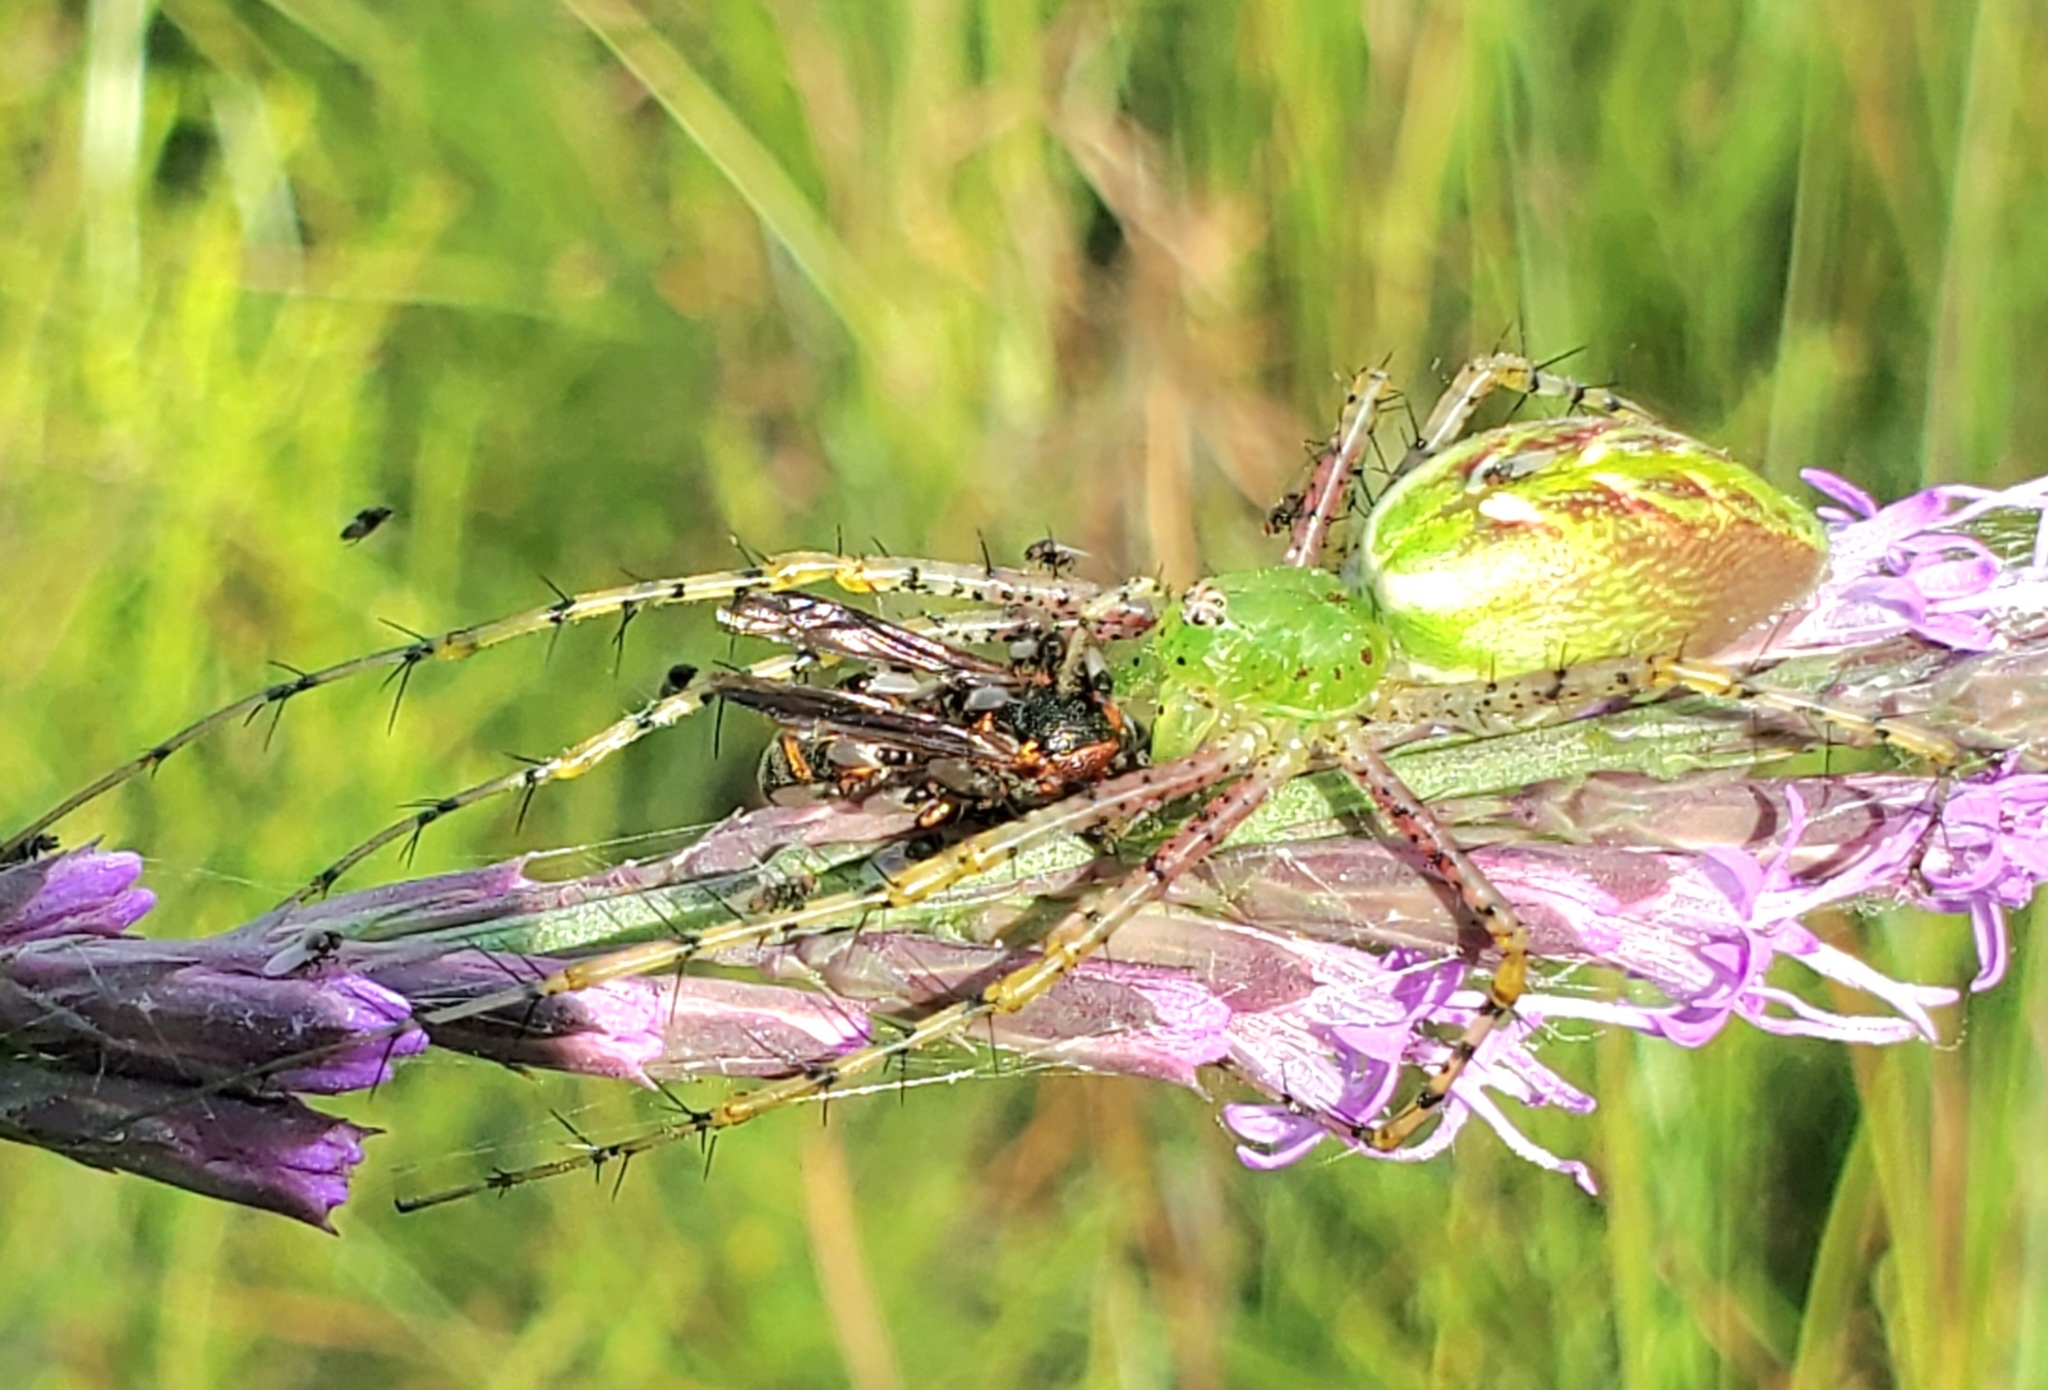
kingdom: Animalia
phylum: Arthropoda
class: Arachnida
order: Araneae
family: Oxyopidae
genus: Peucetia
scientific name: Peucetia viridans
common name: Lynx spiders
